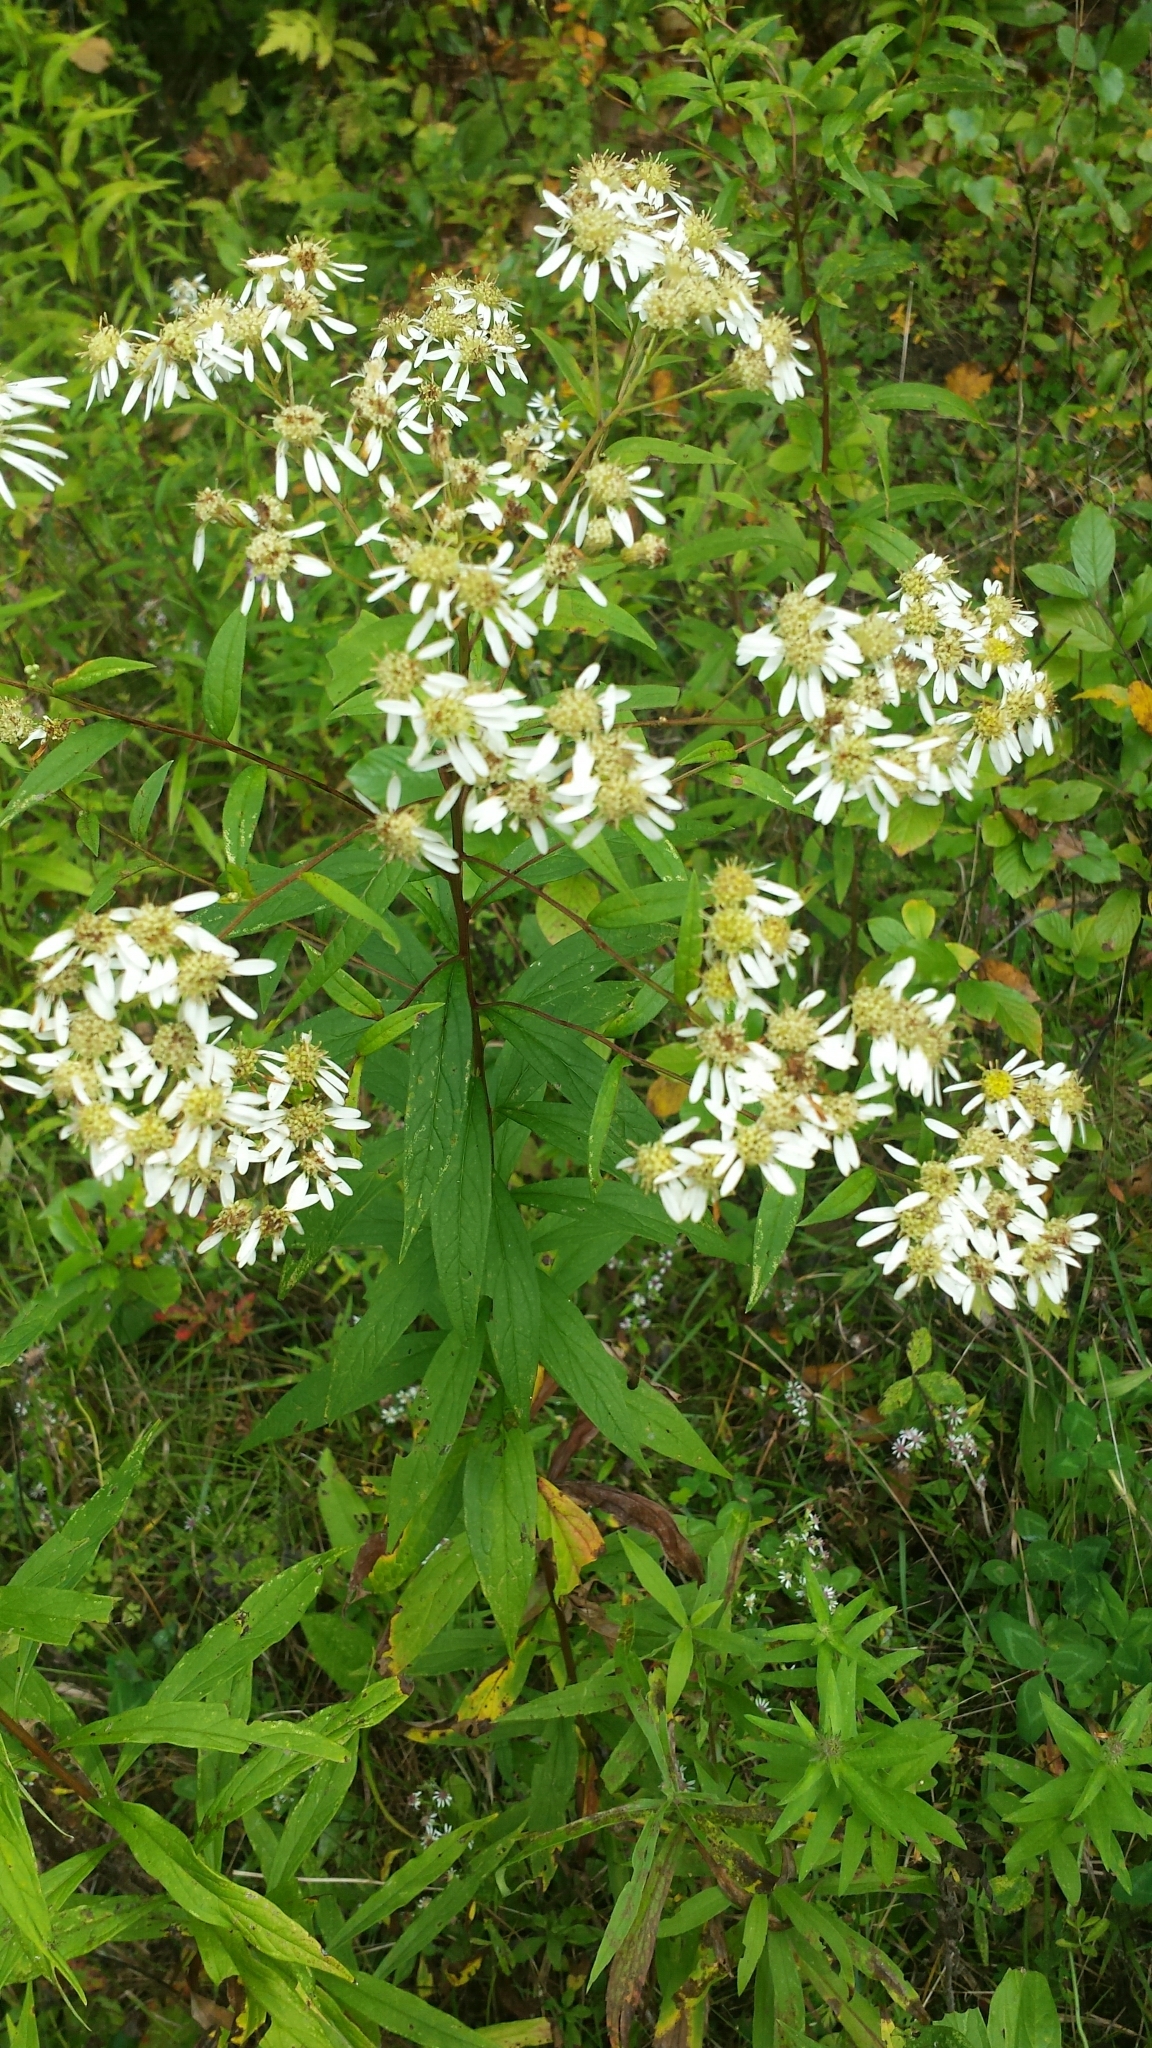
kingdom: Plantae
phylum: Tracheophyta
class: Magnoliopsida
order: Asterales
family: Asteraceae
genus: Doellingeria
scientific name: Doellingeria umbellata
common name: Flat-top white aster
